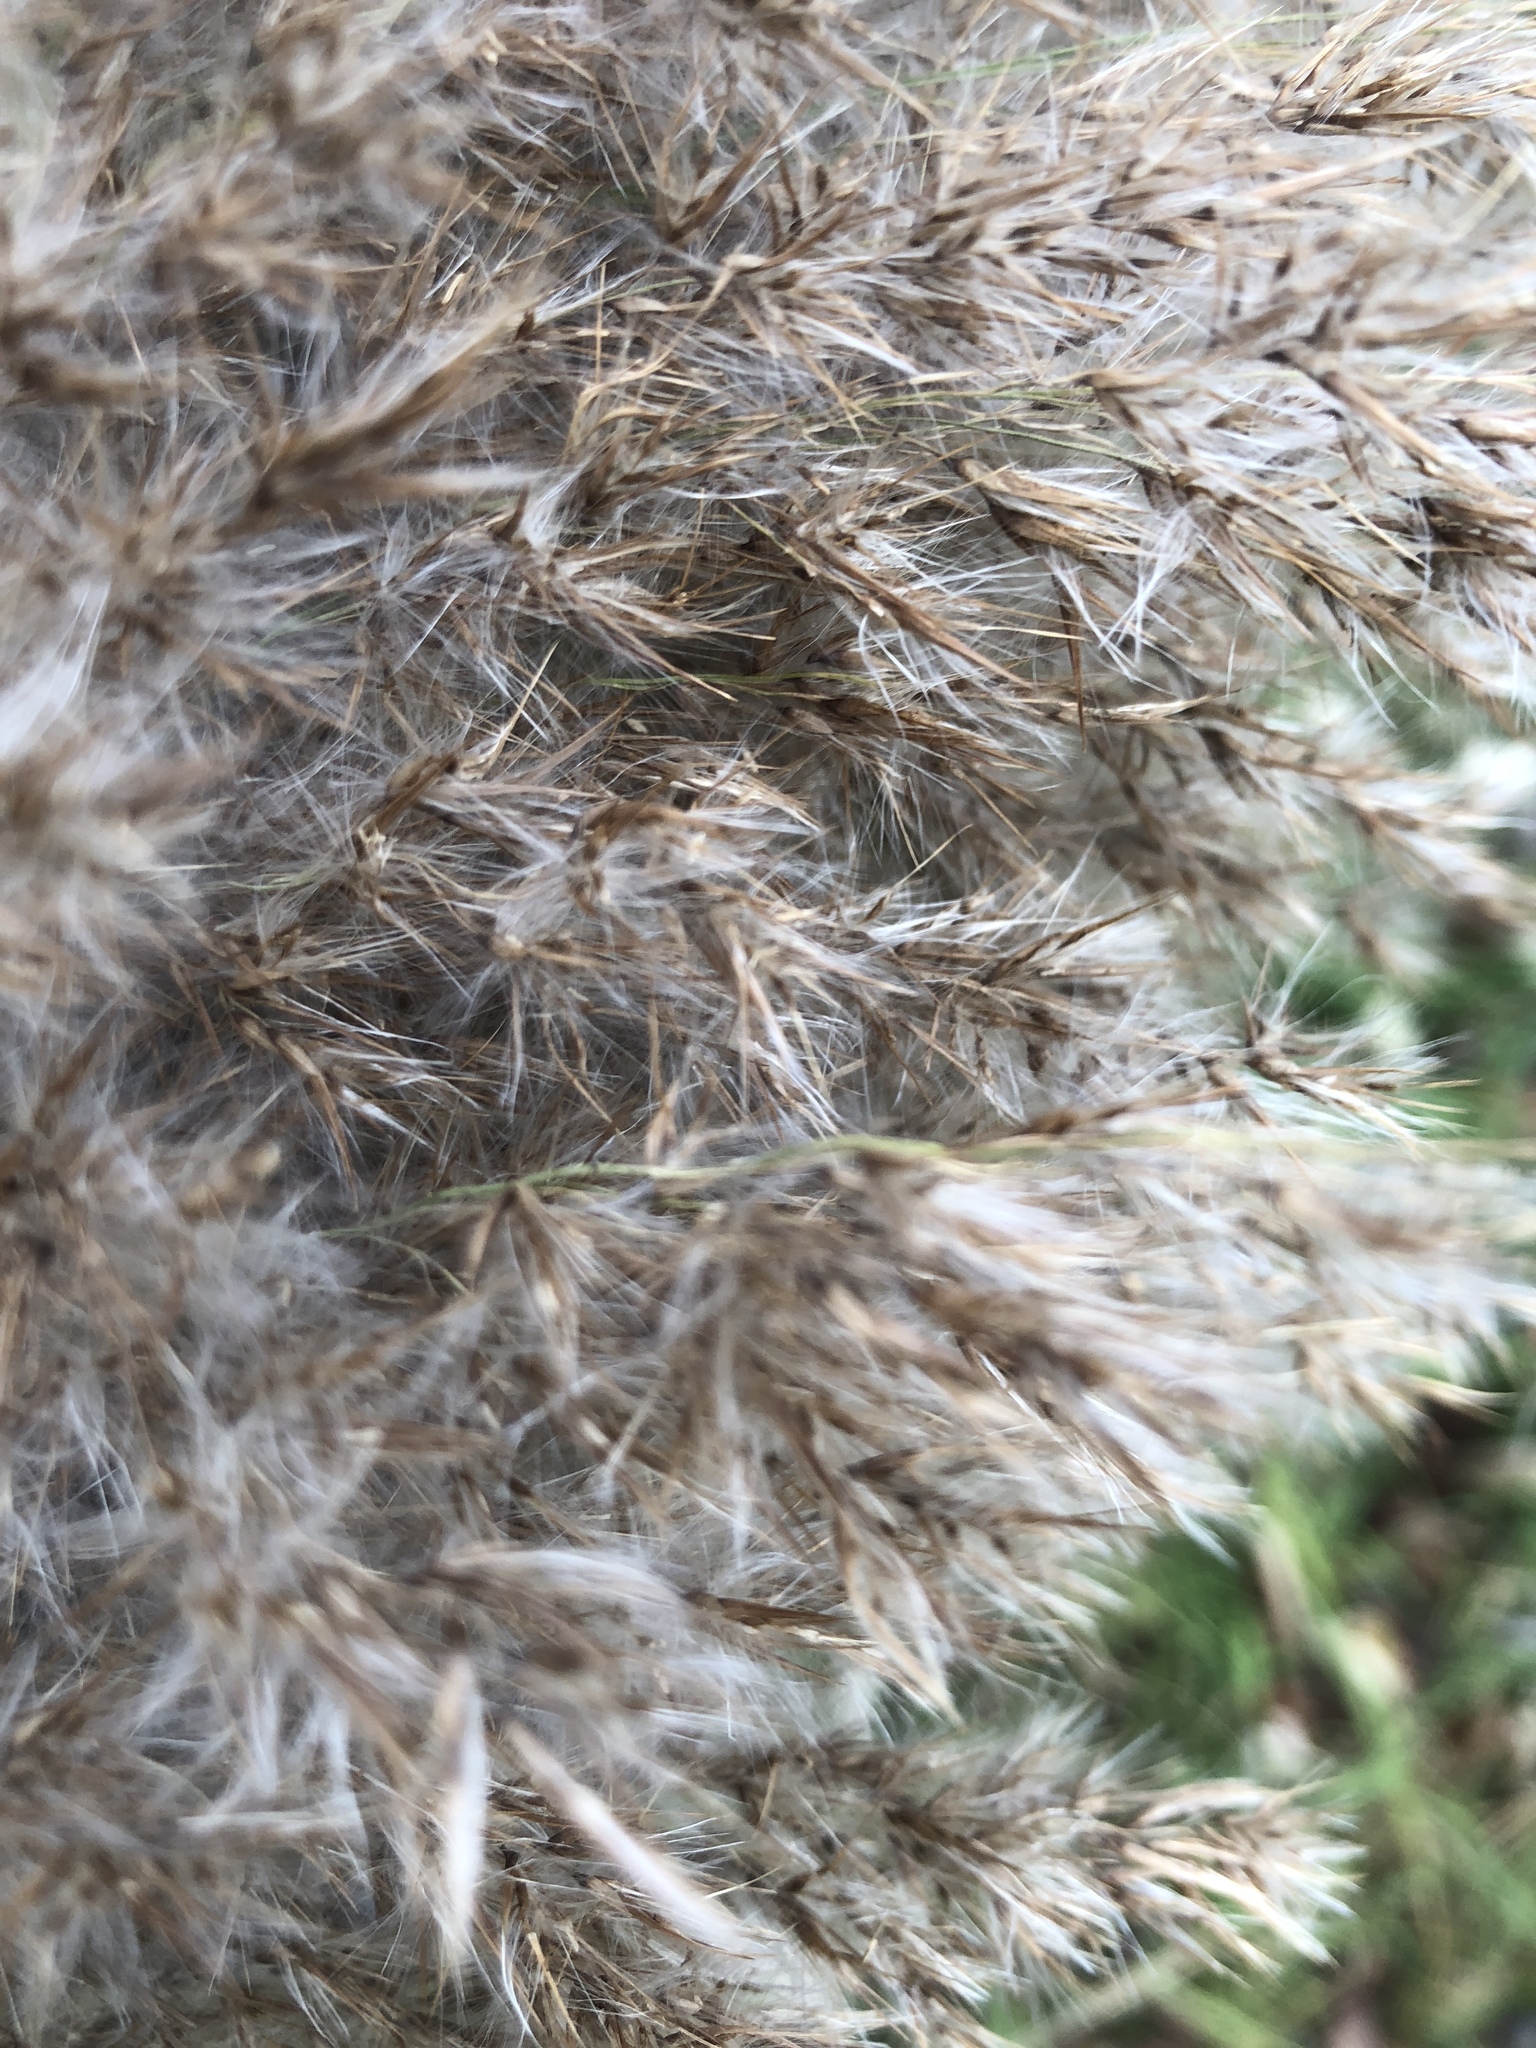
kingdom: Plantae
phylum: Tracheophyta
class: Liliopsida
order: Poales
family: Poaceae
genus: Phragmites
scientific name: Phragmites australis
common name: Common reed
